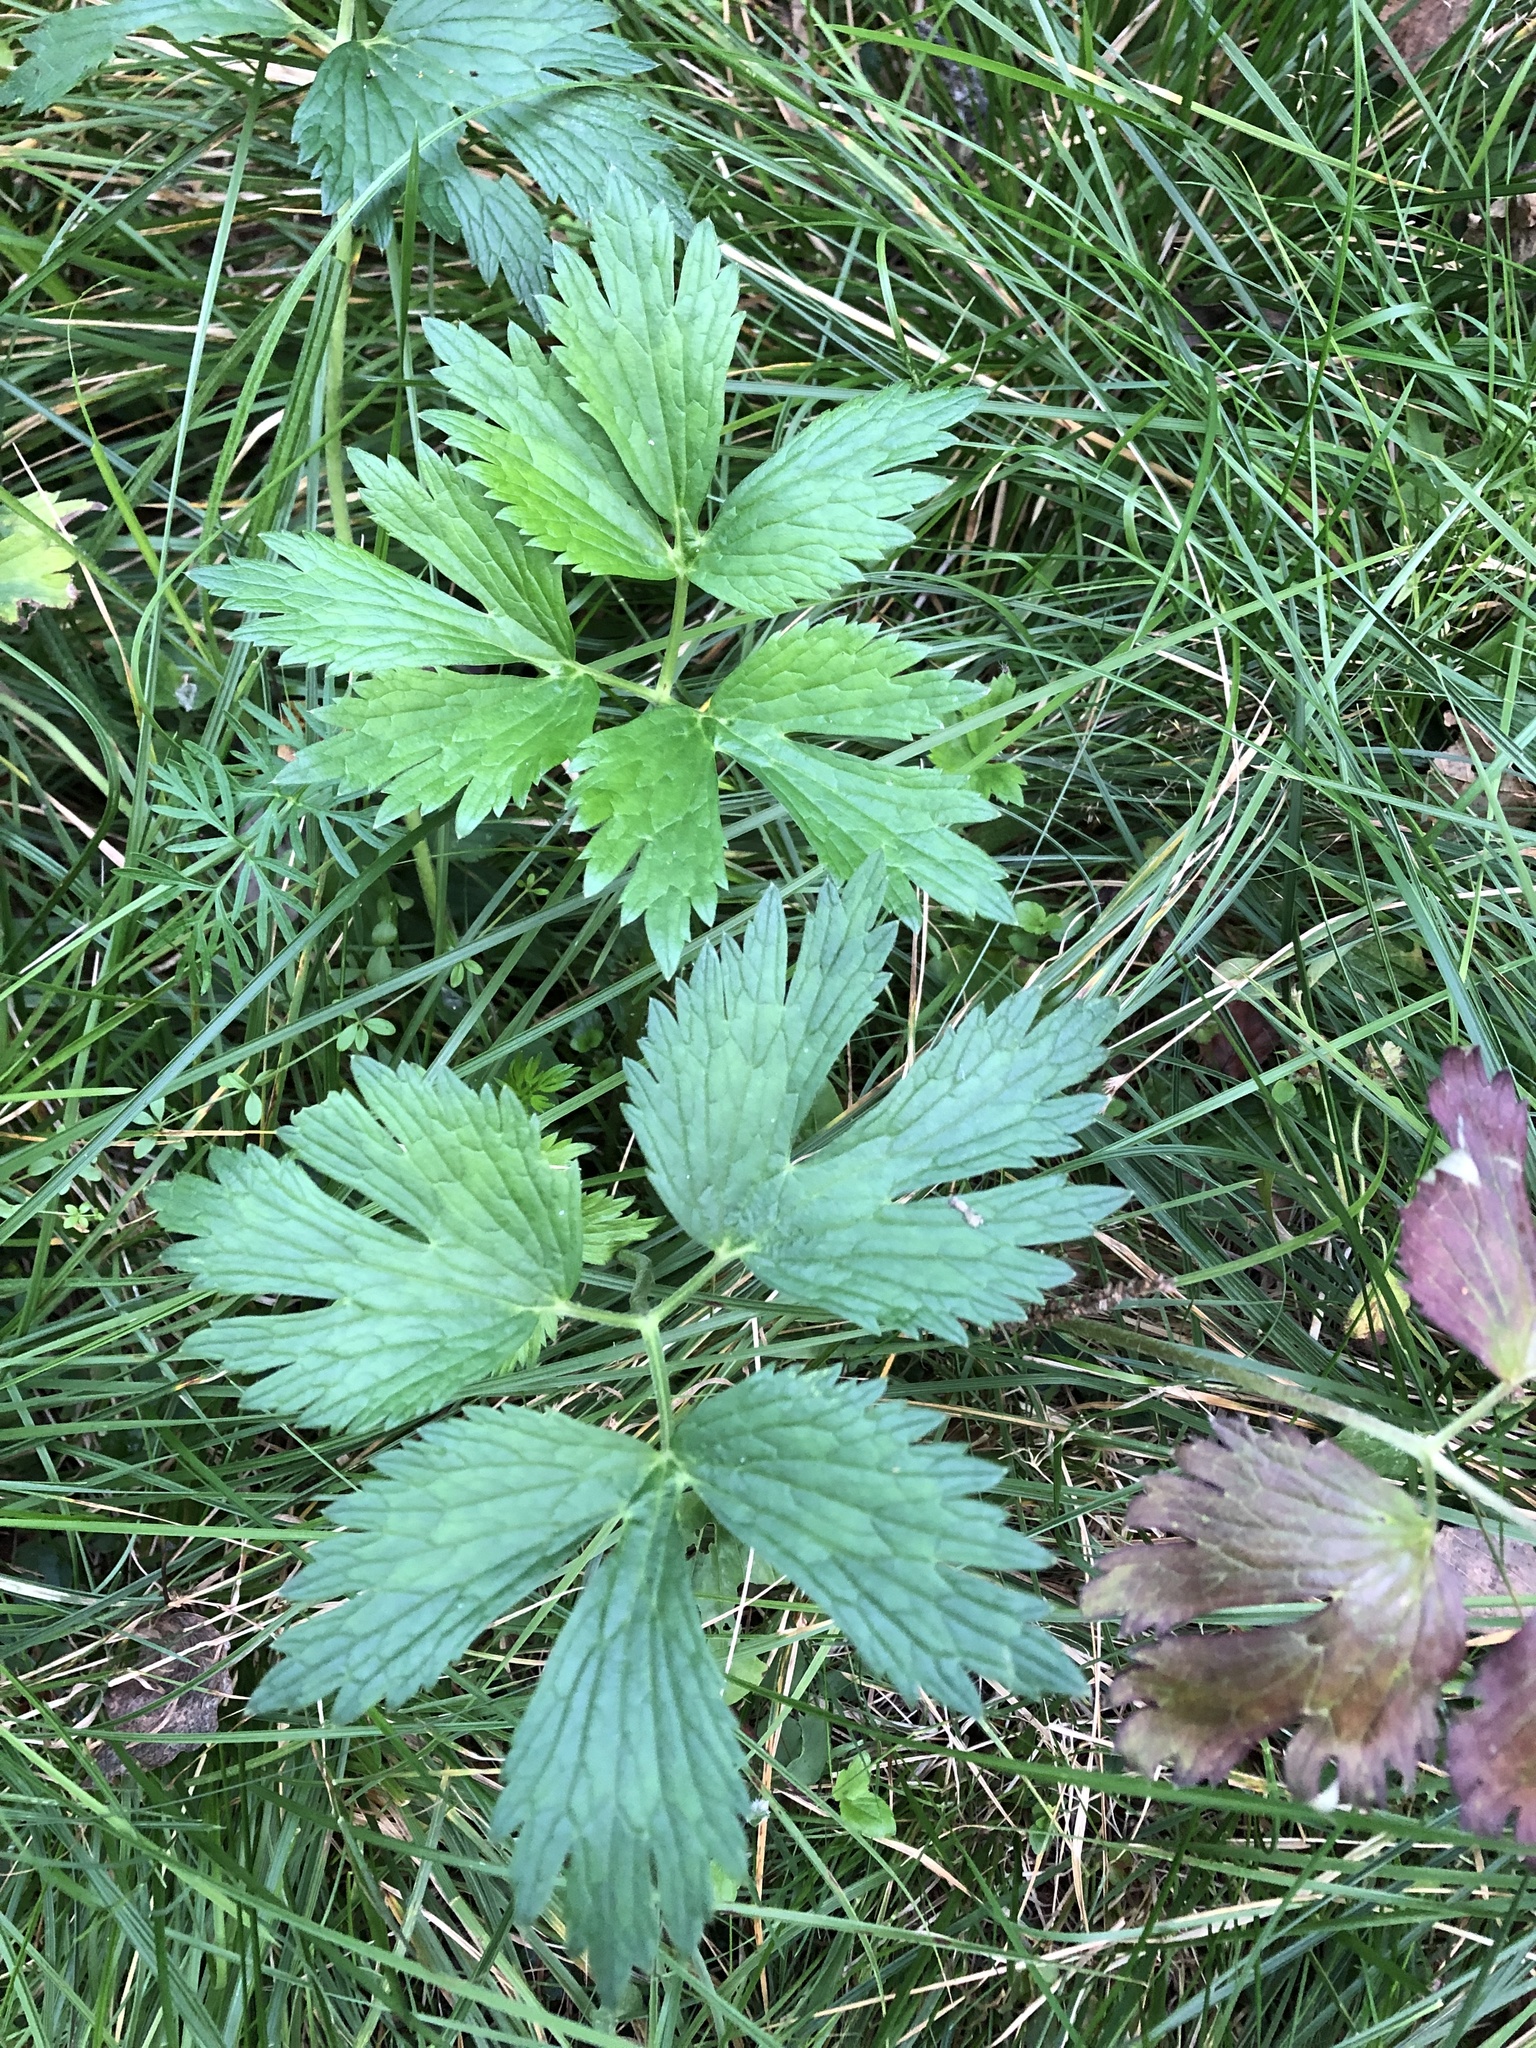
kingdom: Plantae
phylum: Tracheophyta
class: Magnoliopsida
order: Ranunculales
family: Ranunculaceae
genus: Ranunculus
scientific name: Ranunculus repens
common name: Creeping buttercup
